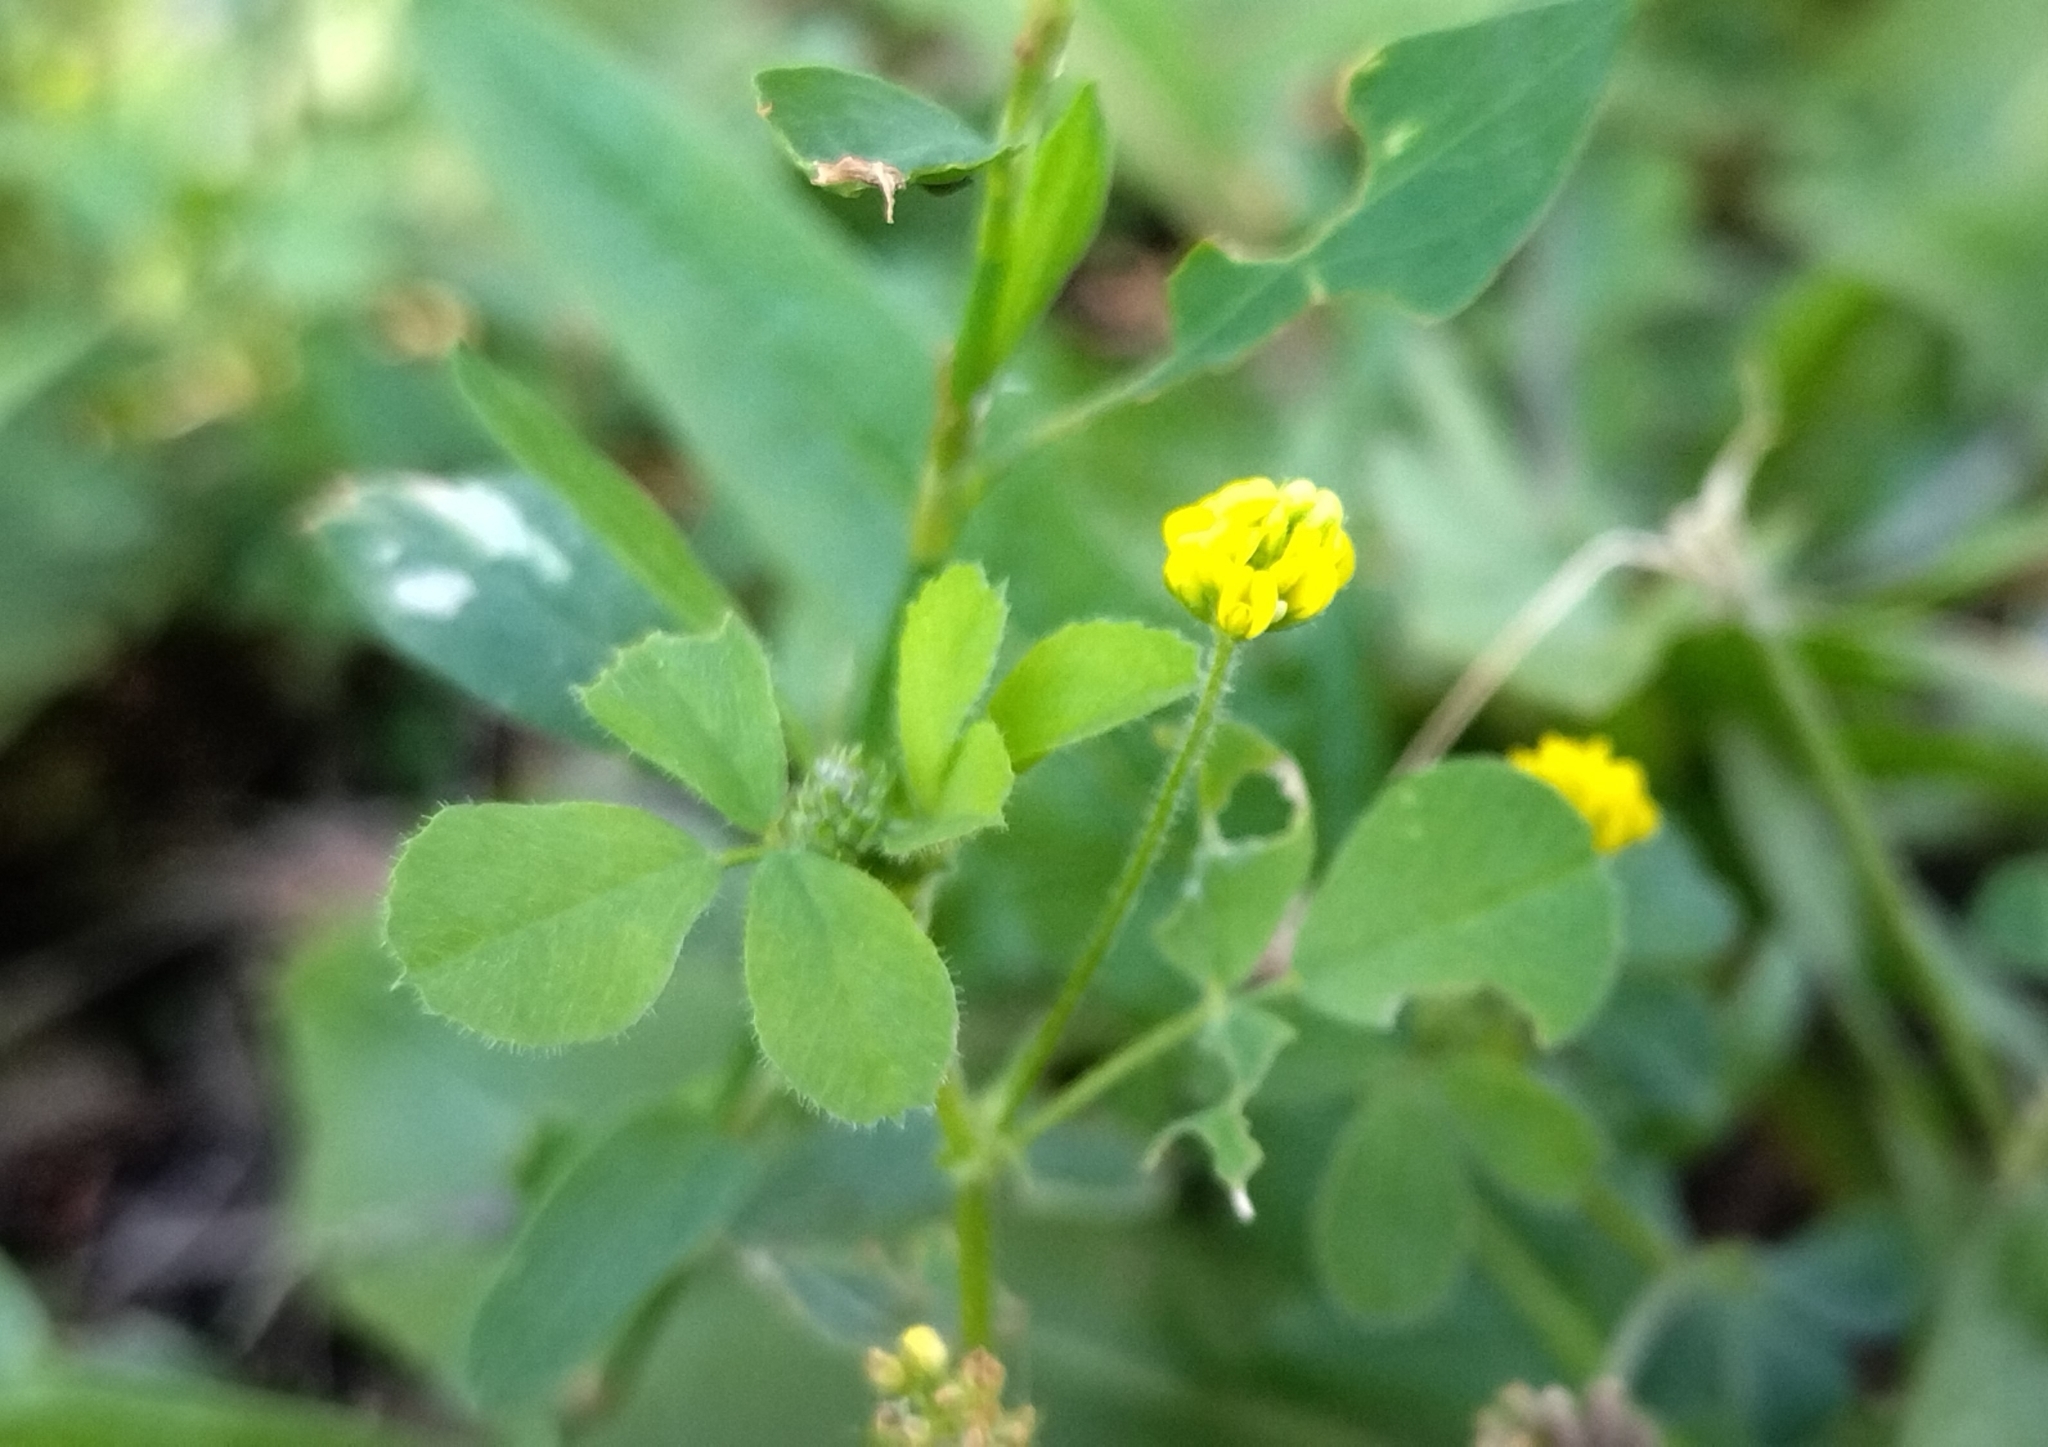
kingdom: Plantae
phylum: Tracheophyta
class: Magnoliopsida
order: Fabales
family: Fabaceae
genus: Medicago
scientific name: Medicago lupulina
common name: Black medick
